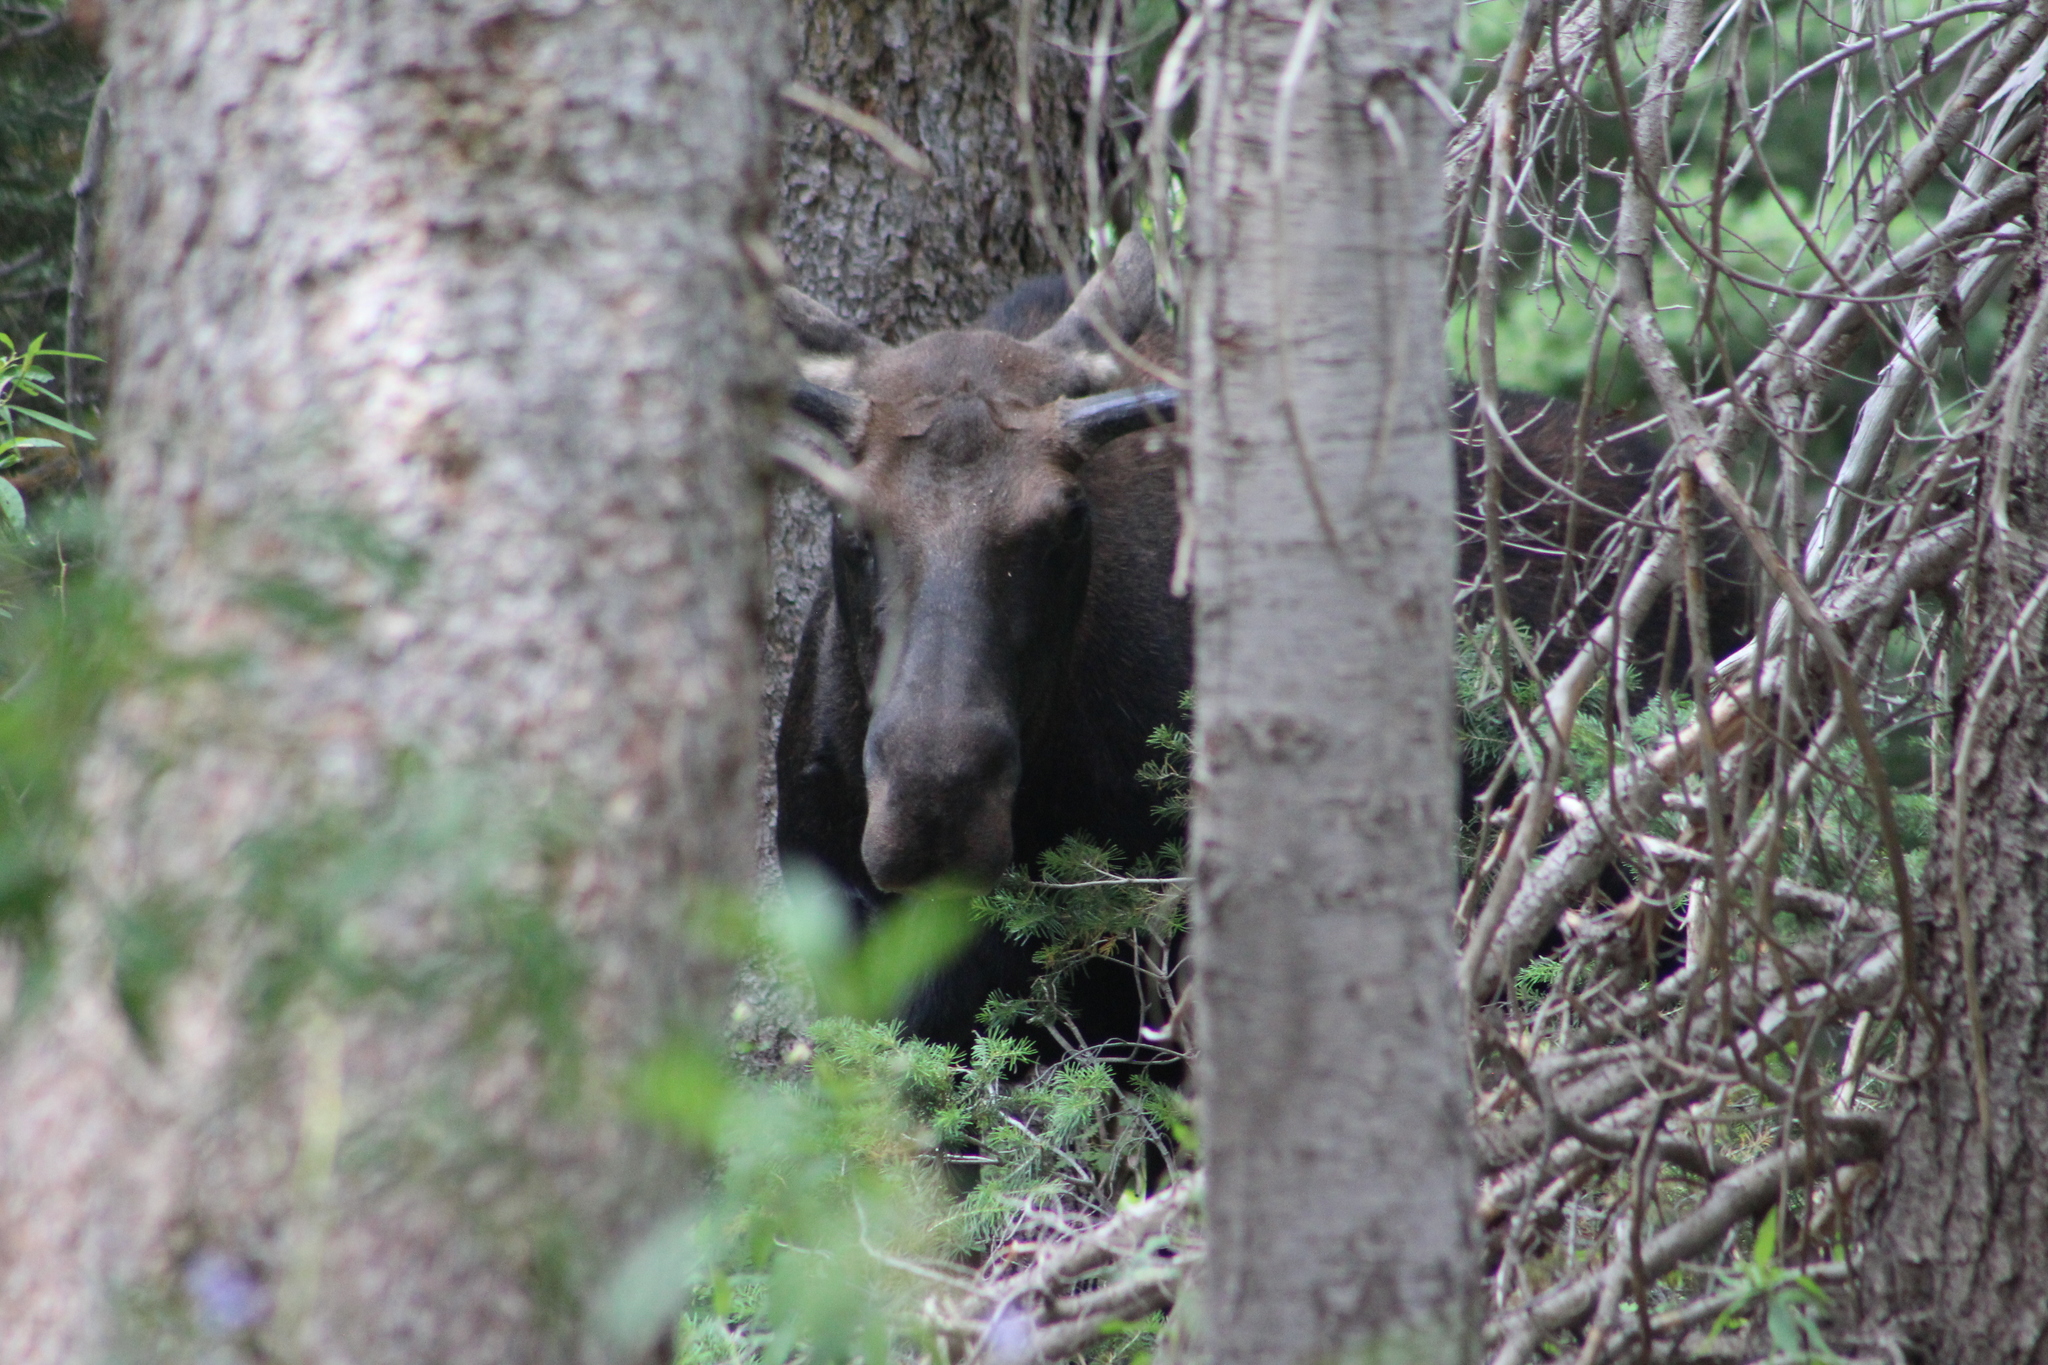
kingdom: Animalia
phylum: Chordata
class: Mammalia
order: Artiodactyla
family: Cervidae
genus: Alces
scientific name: Alces alces
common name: Moose
